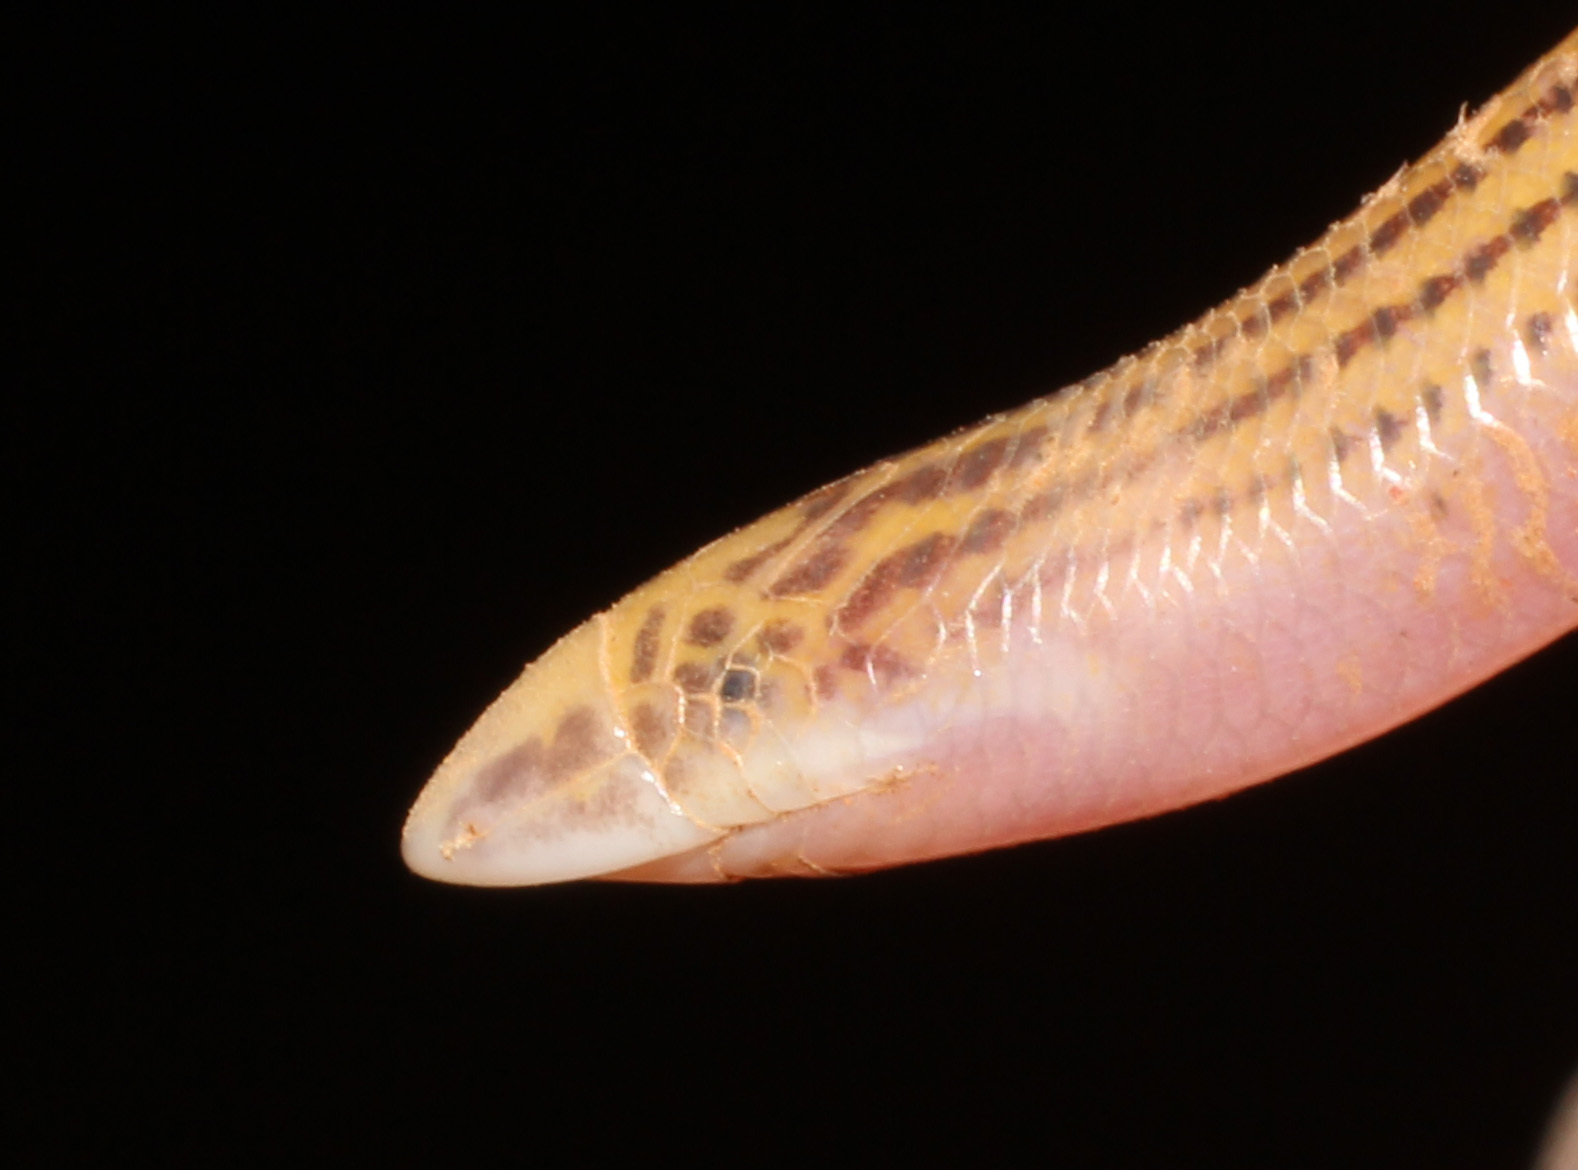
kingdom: Animalia
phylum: Chordata
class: Squamata
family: Scincidae
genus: Acontias
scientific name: Acontias kgalagadi
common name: Striped blind legless skink
